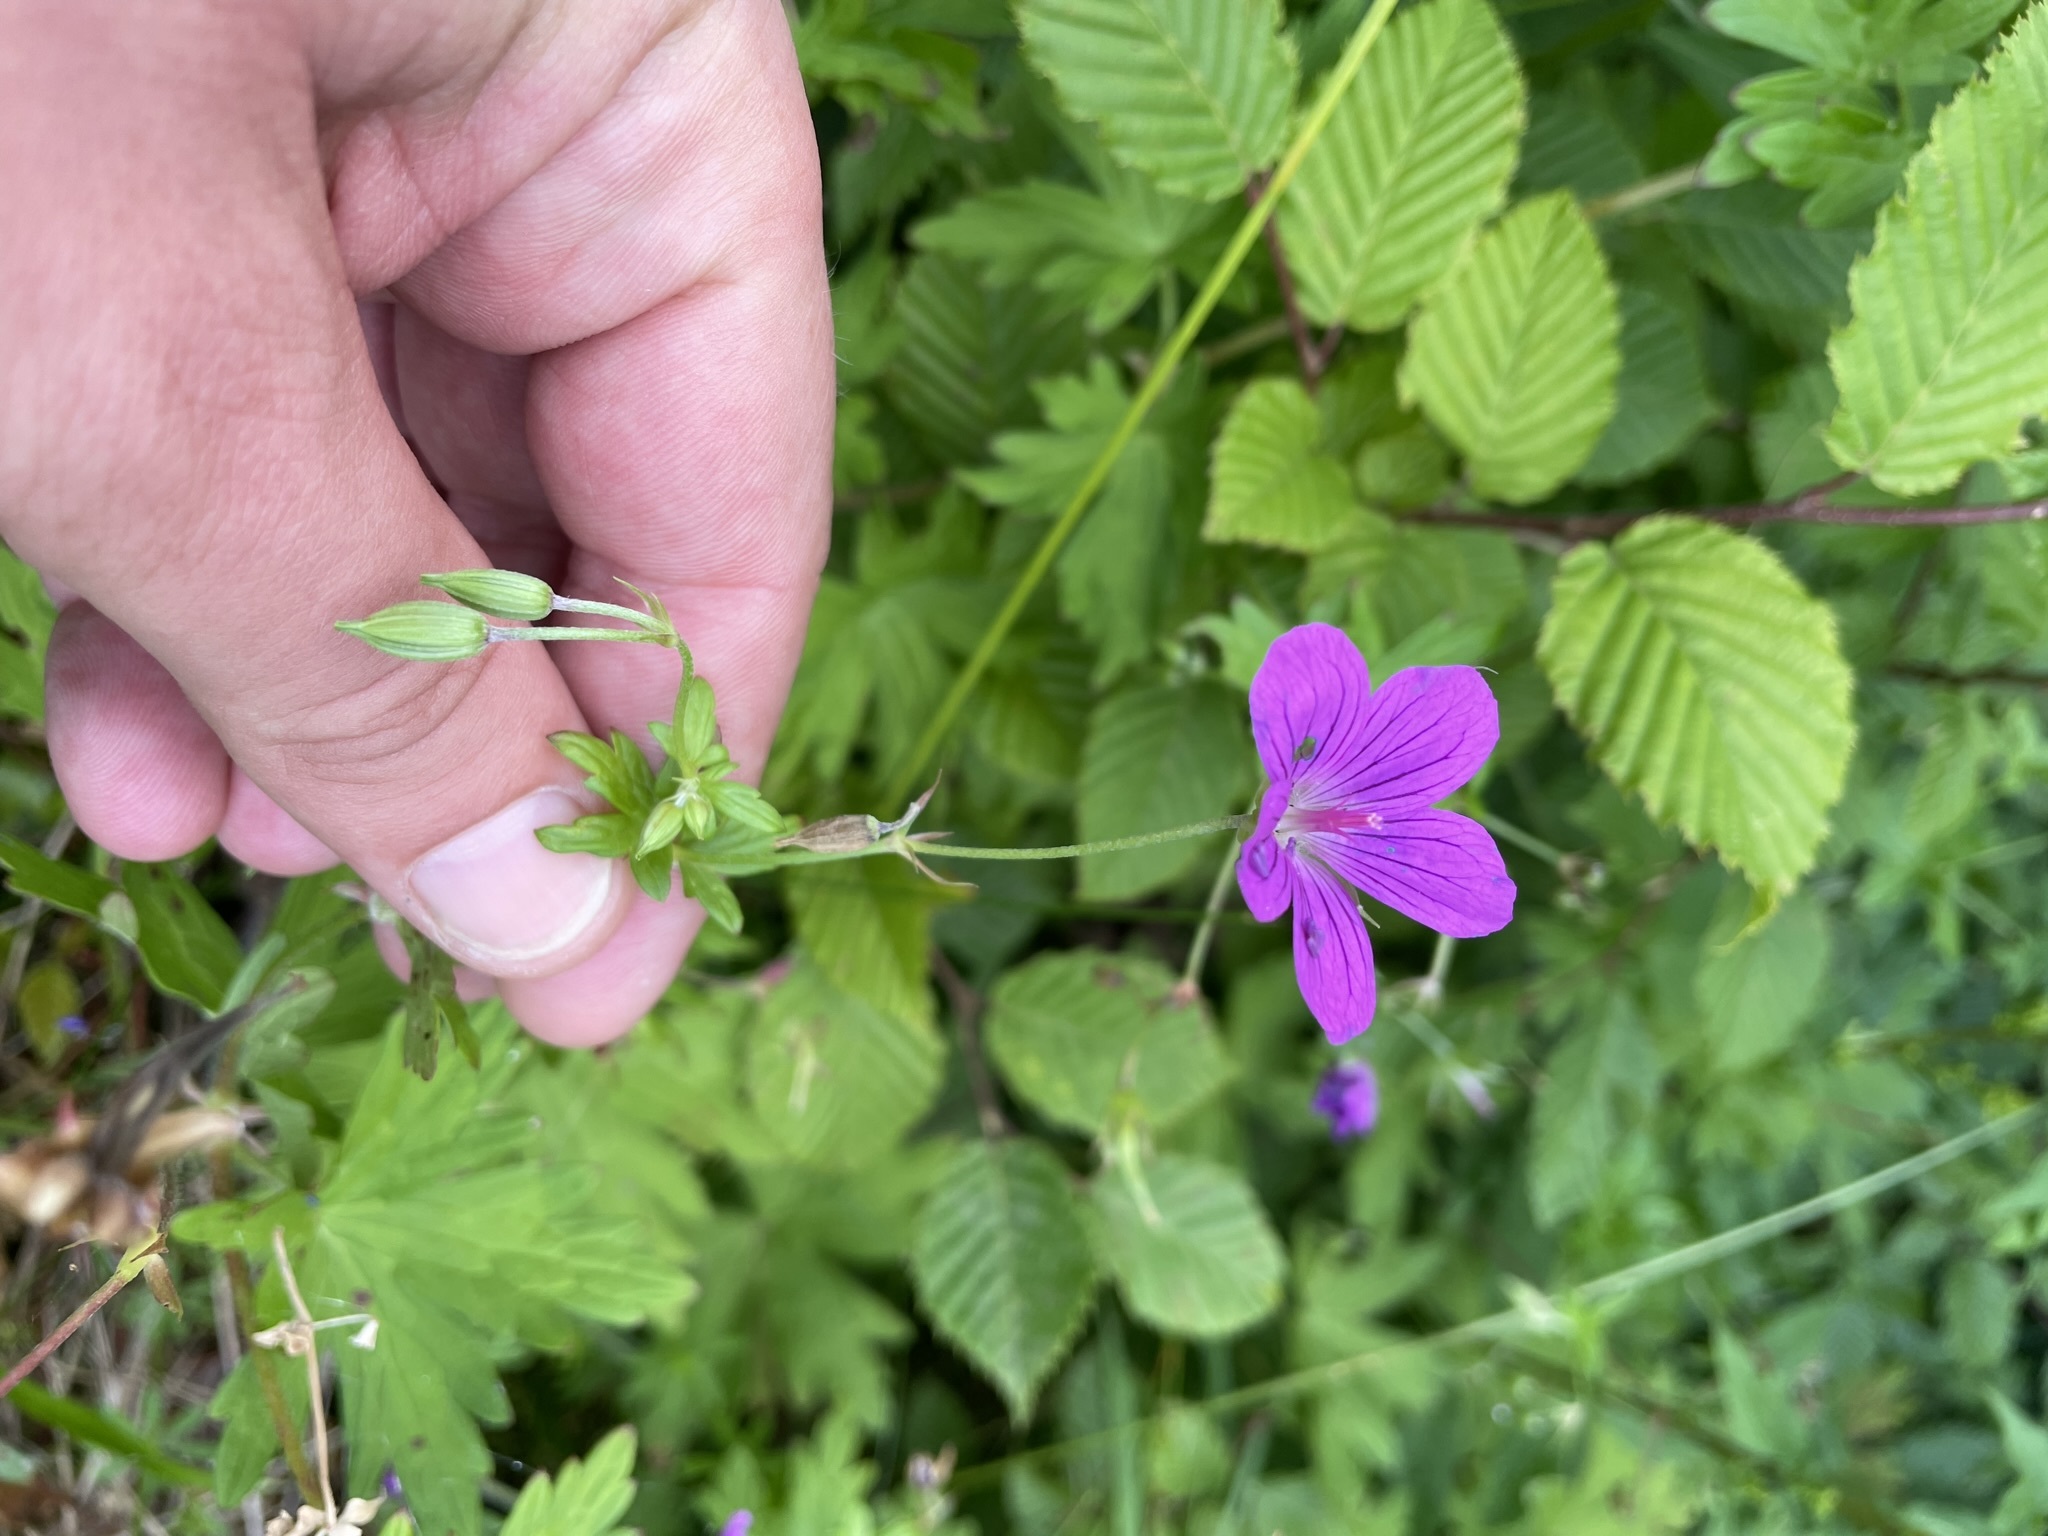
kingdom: Plantae
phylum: Tracheophyta
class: Magnoliopsida
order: Geraniales
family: Geraniaceae
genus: Geranium
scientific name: Geranium palustre
